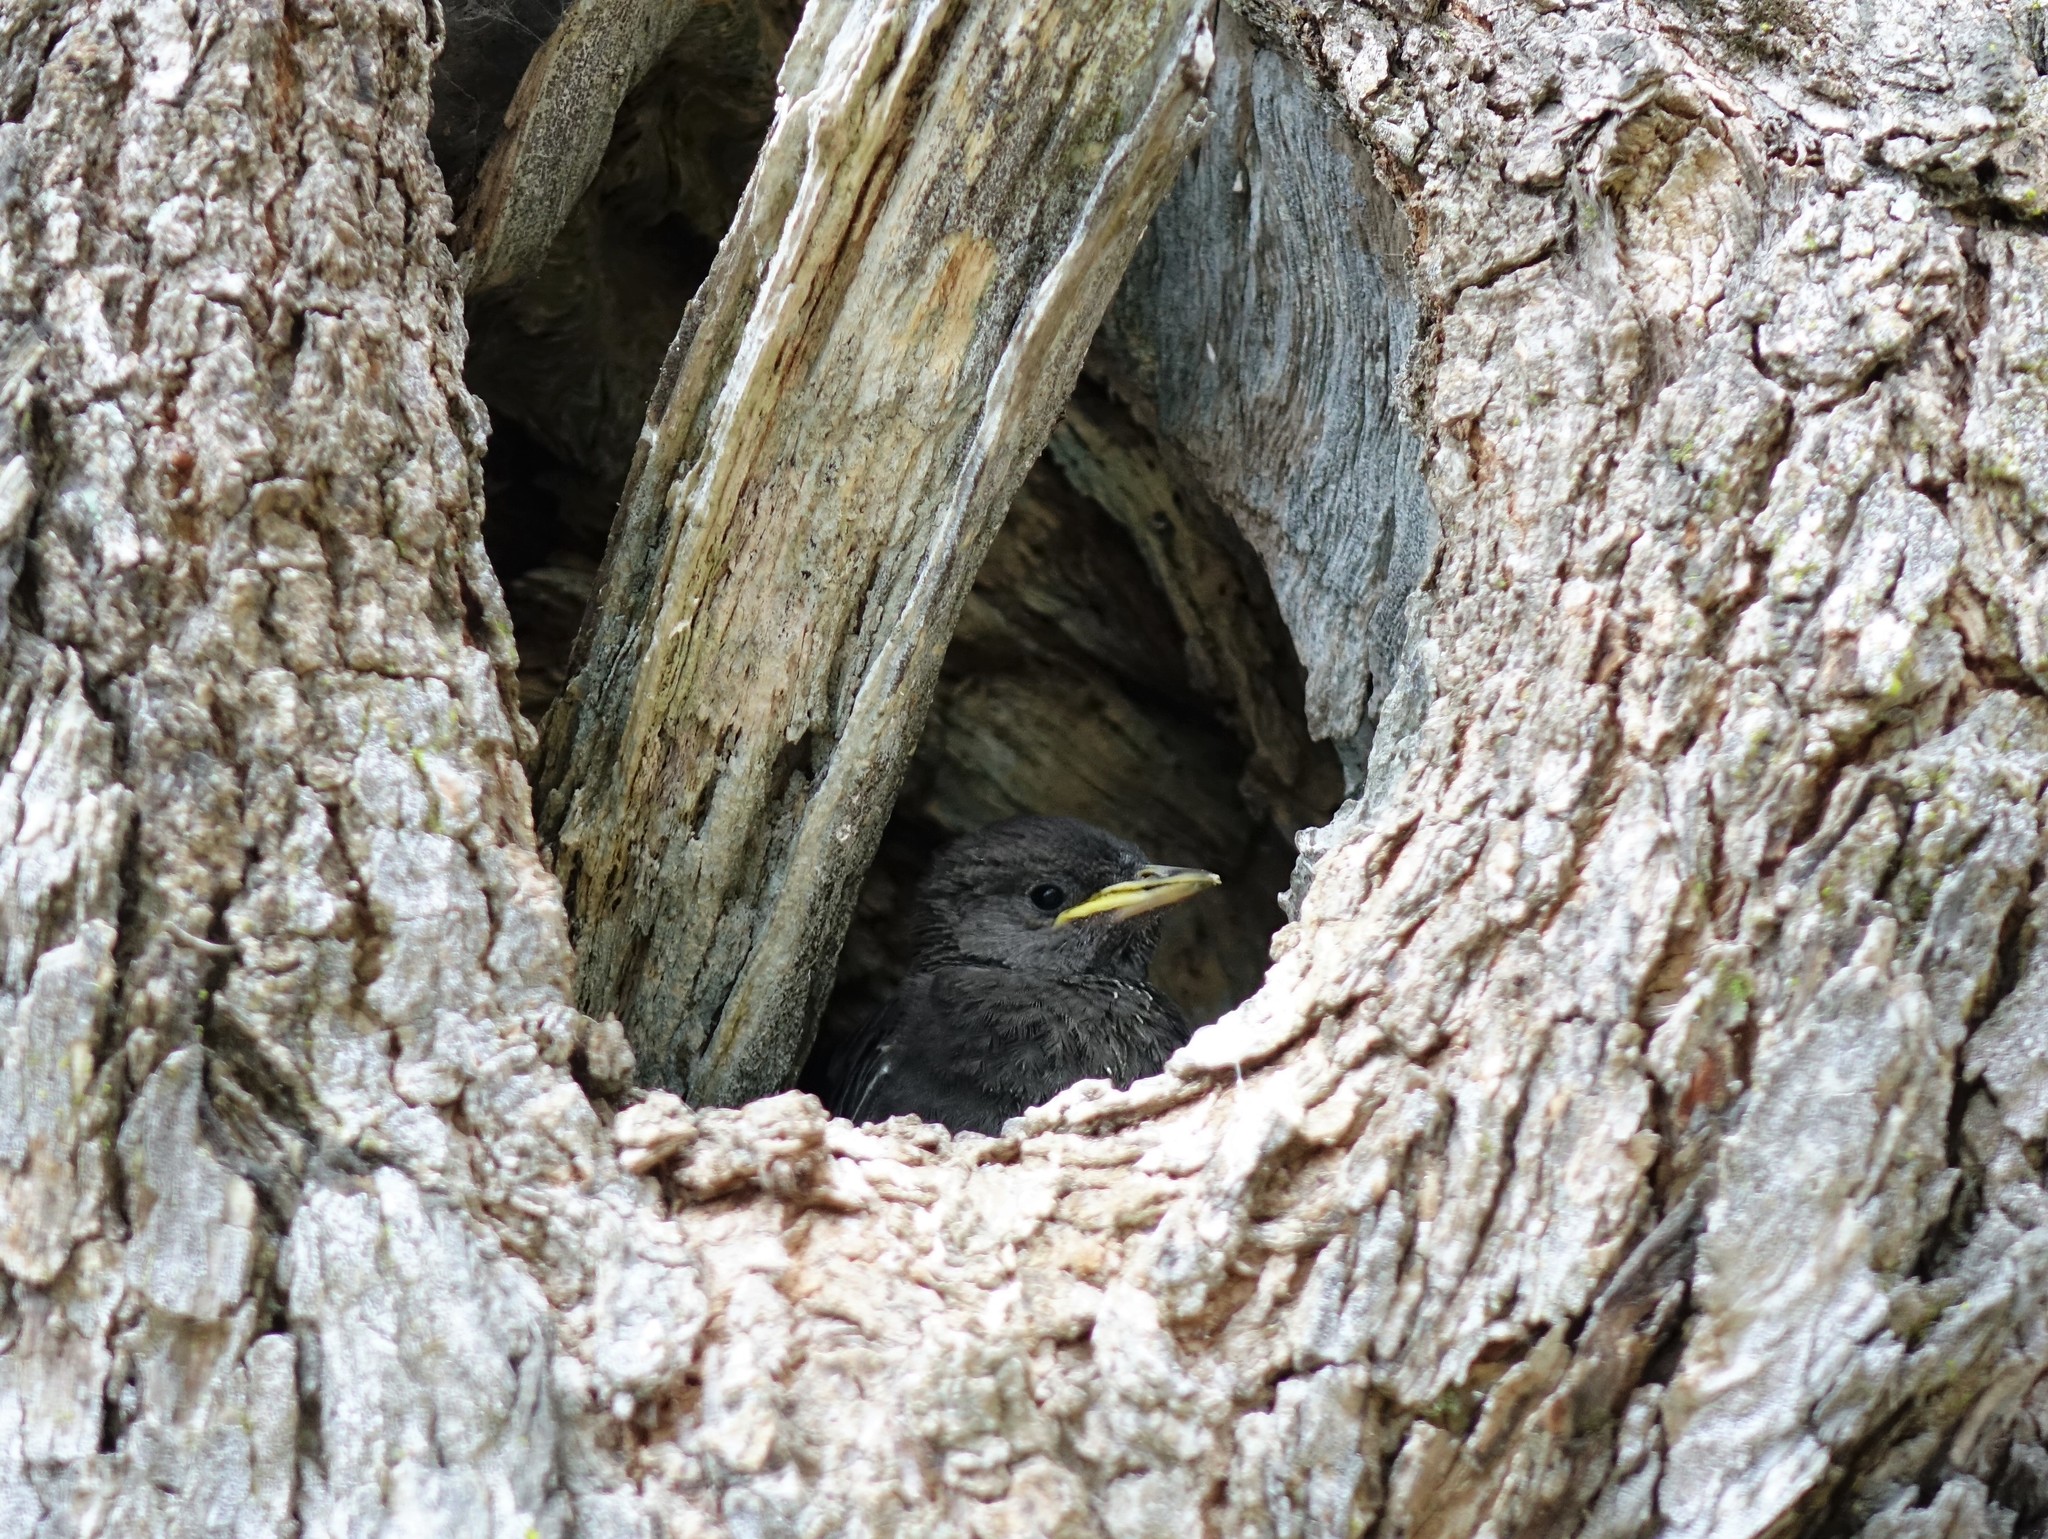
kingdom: Animalia
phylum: Chordata
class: Aves
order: Passeriformes
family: Sturnidae
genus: Sturnus
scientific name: Sturnus vulgaris
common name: Common starling
